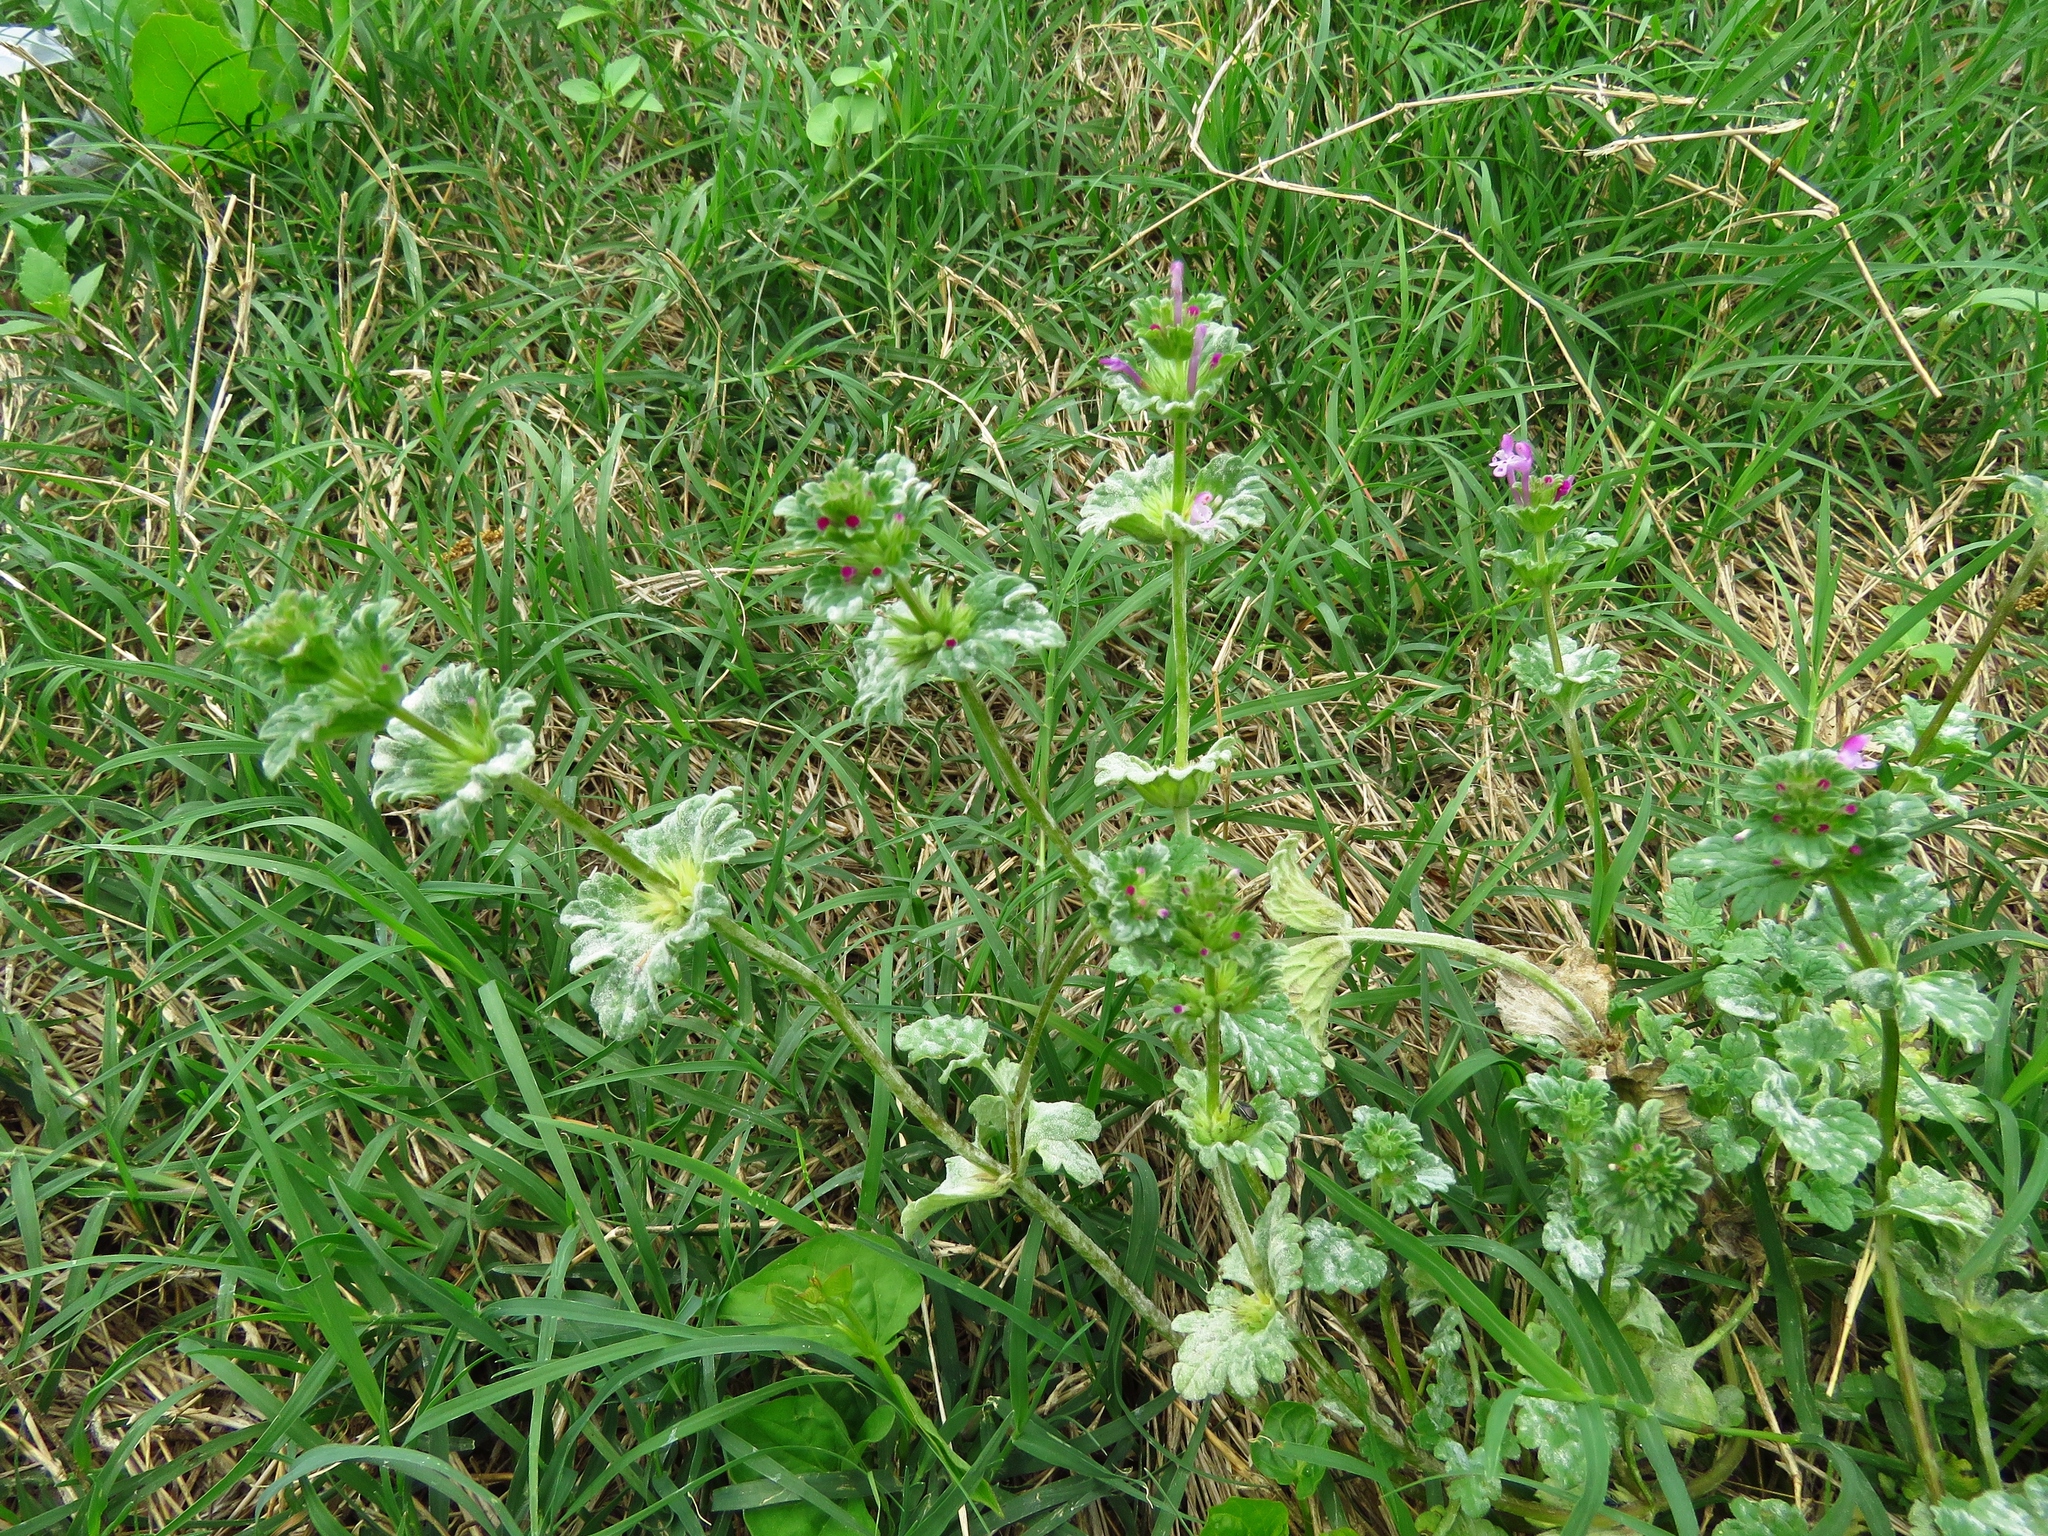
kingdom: Plantae
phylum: Tracheophyta
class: Magnoliopsida
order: Lamiales
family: Lamiaceae
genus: Lamium
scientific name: Lamium amplexicaule
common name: Henbit dead-nettle
